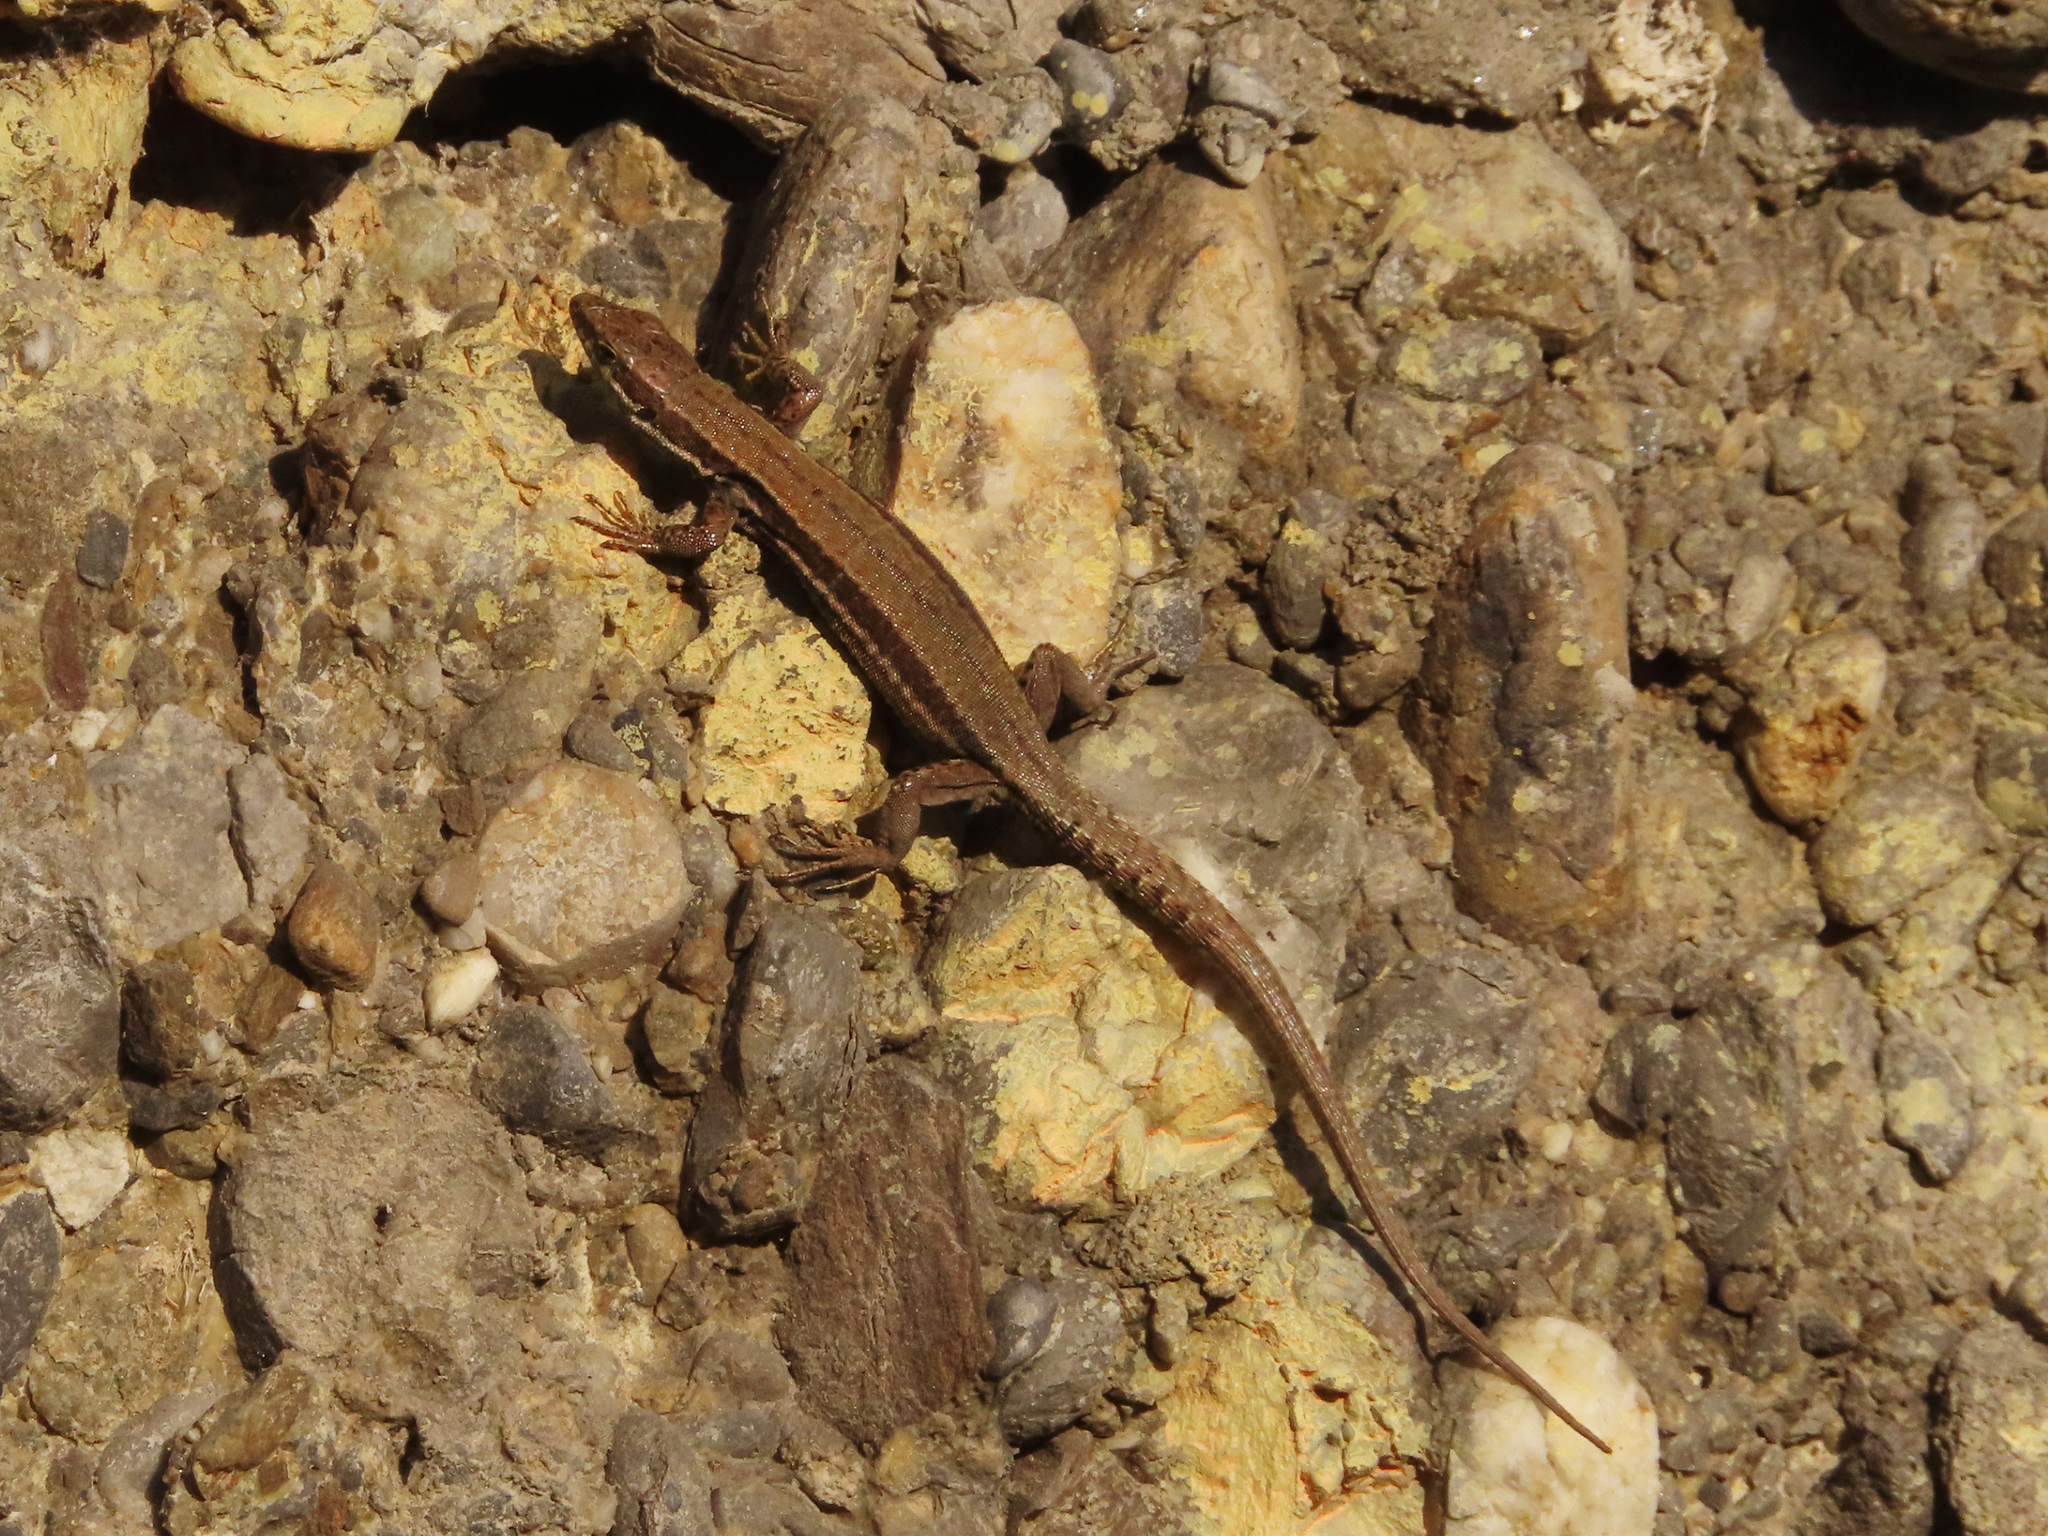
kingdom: Animalia
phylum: Chordata
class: Squamata
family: Lacertidae
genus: Podarcis
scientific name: Podarcis muralis
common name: Common wall lizard
